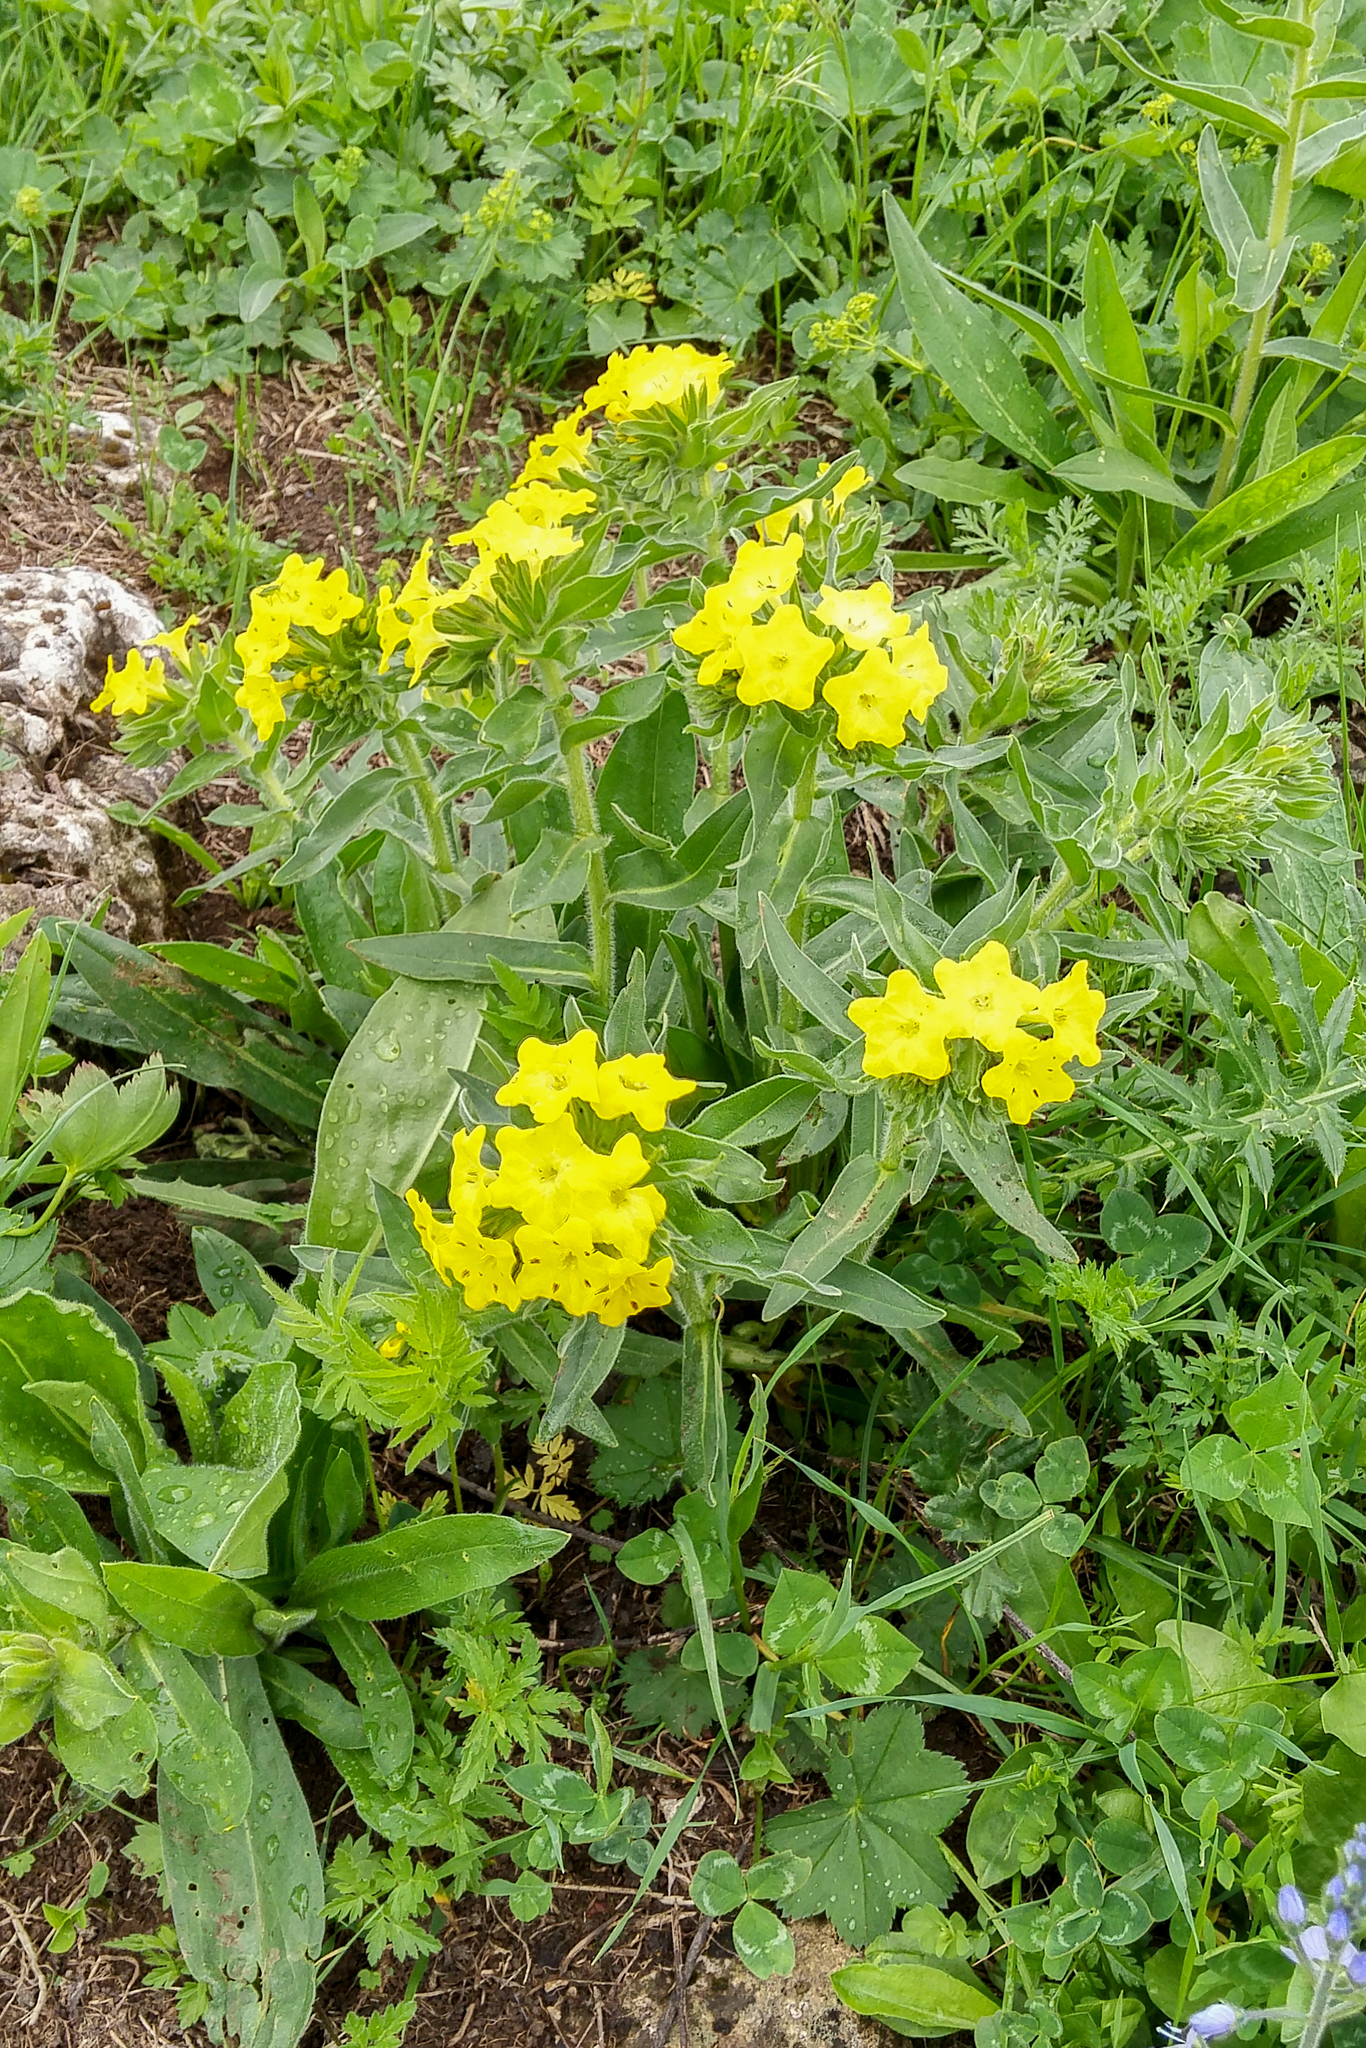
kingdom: Plantae
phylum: Tracheophyta
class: Magnoliopsida
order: Boraginales
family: Boraginaceae
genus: Huynhia
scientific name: Huynhia pulchra
